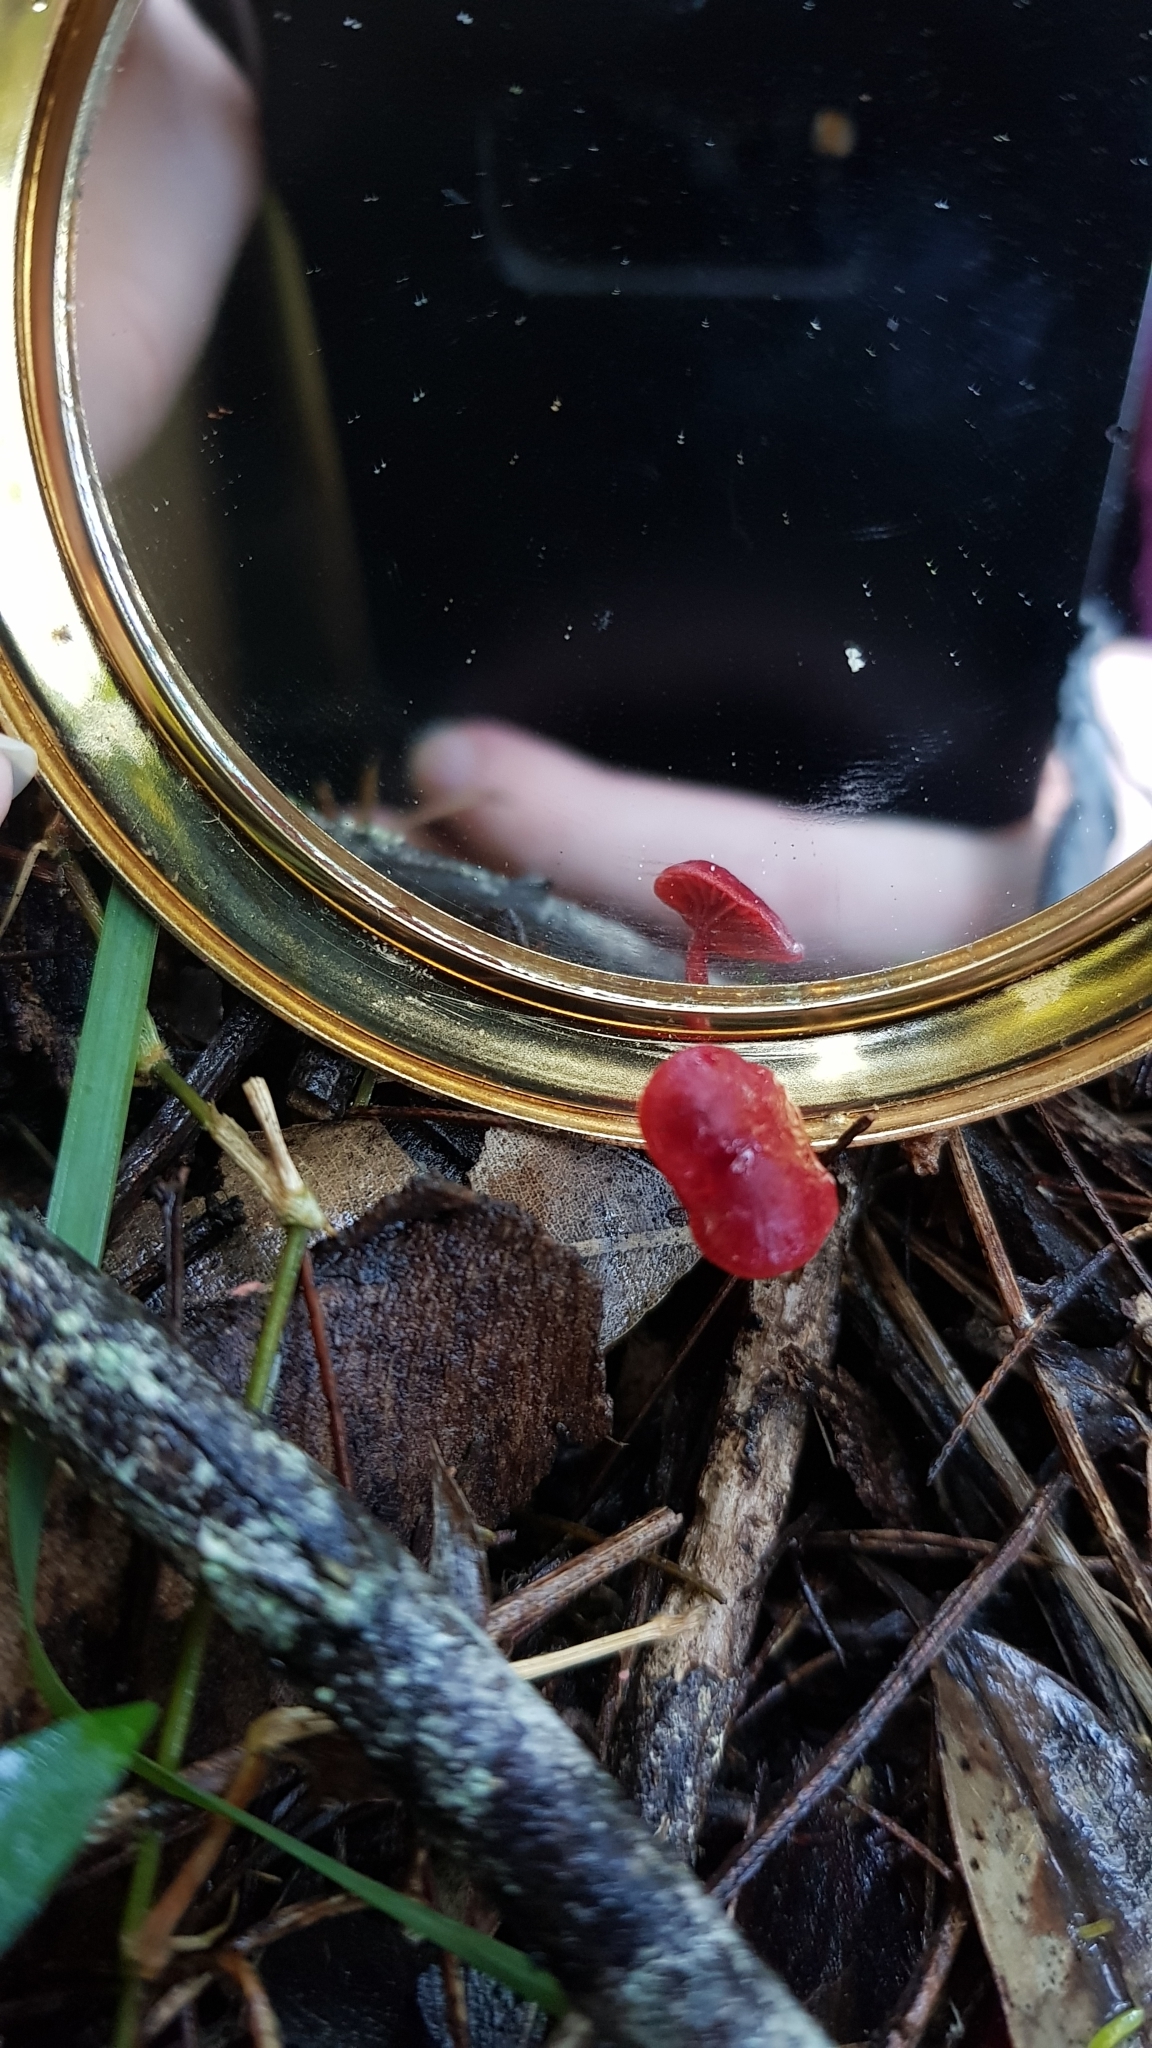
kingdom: Fungi
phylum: Basidiomycota
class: Agaricomycetes
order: Agaricales
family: Mycenaceae
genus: Cruentomycena
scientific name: Cruentomycena viscidocruenta
